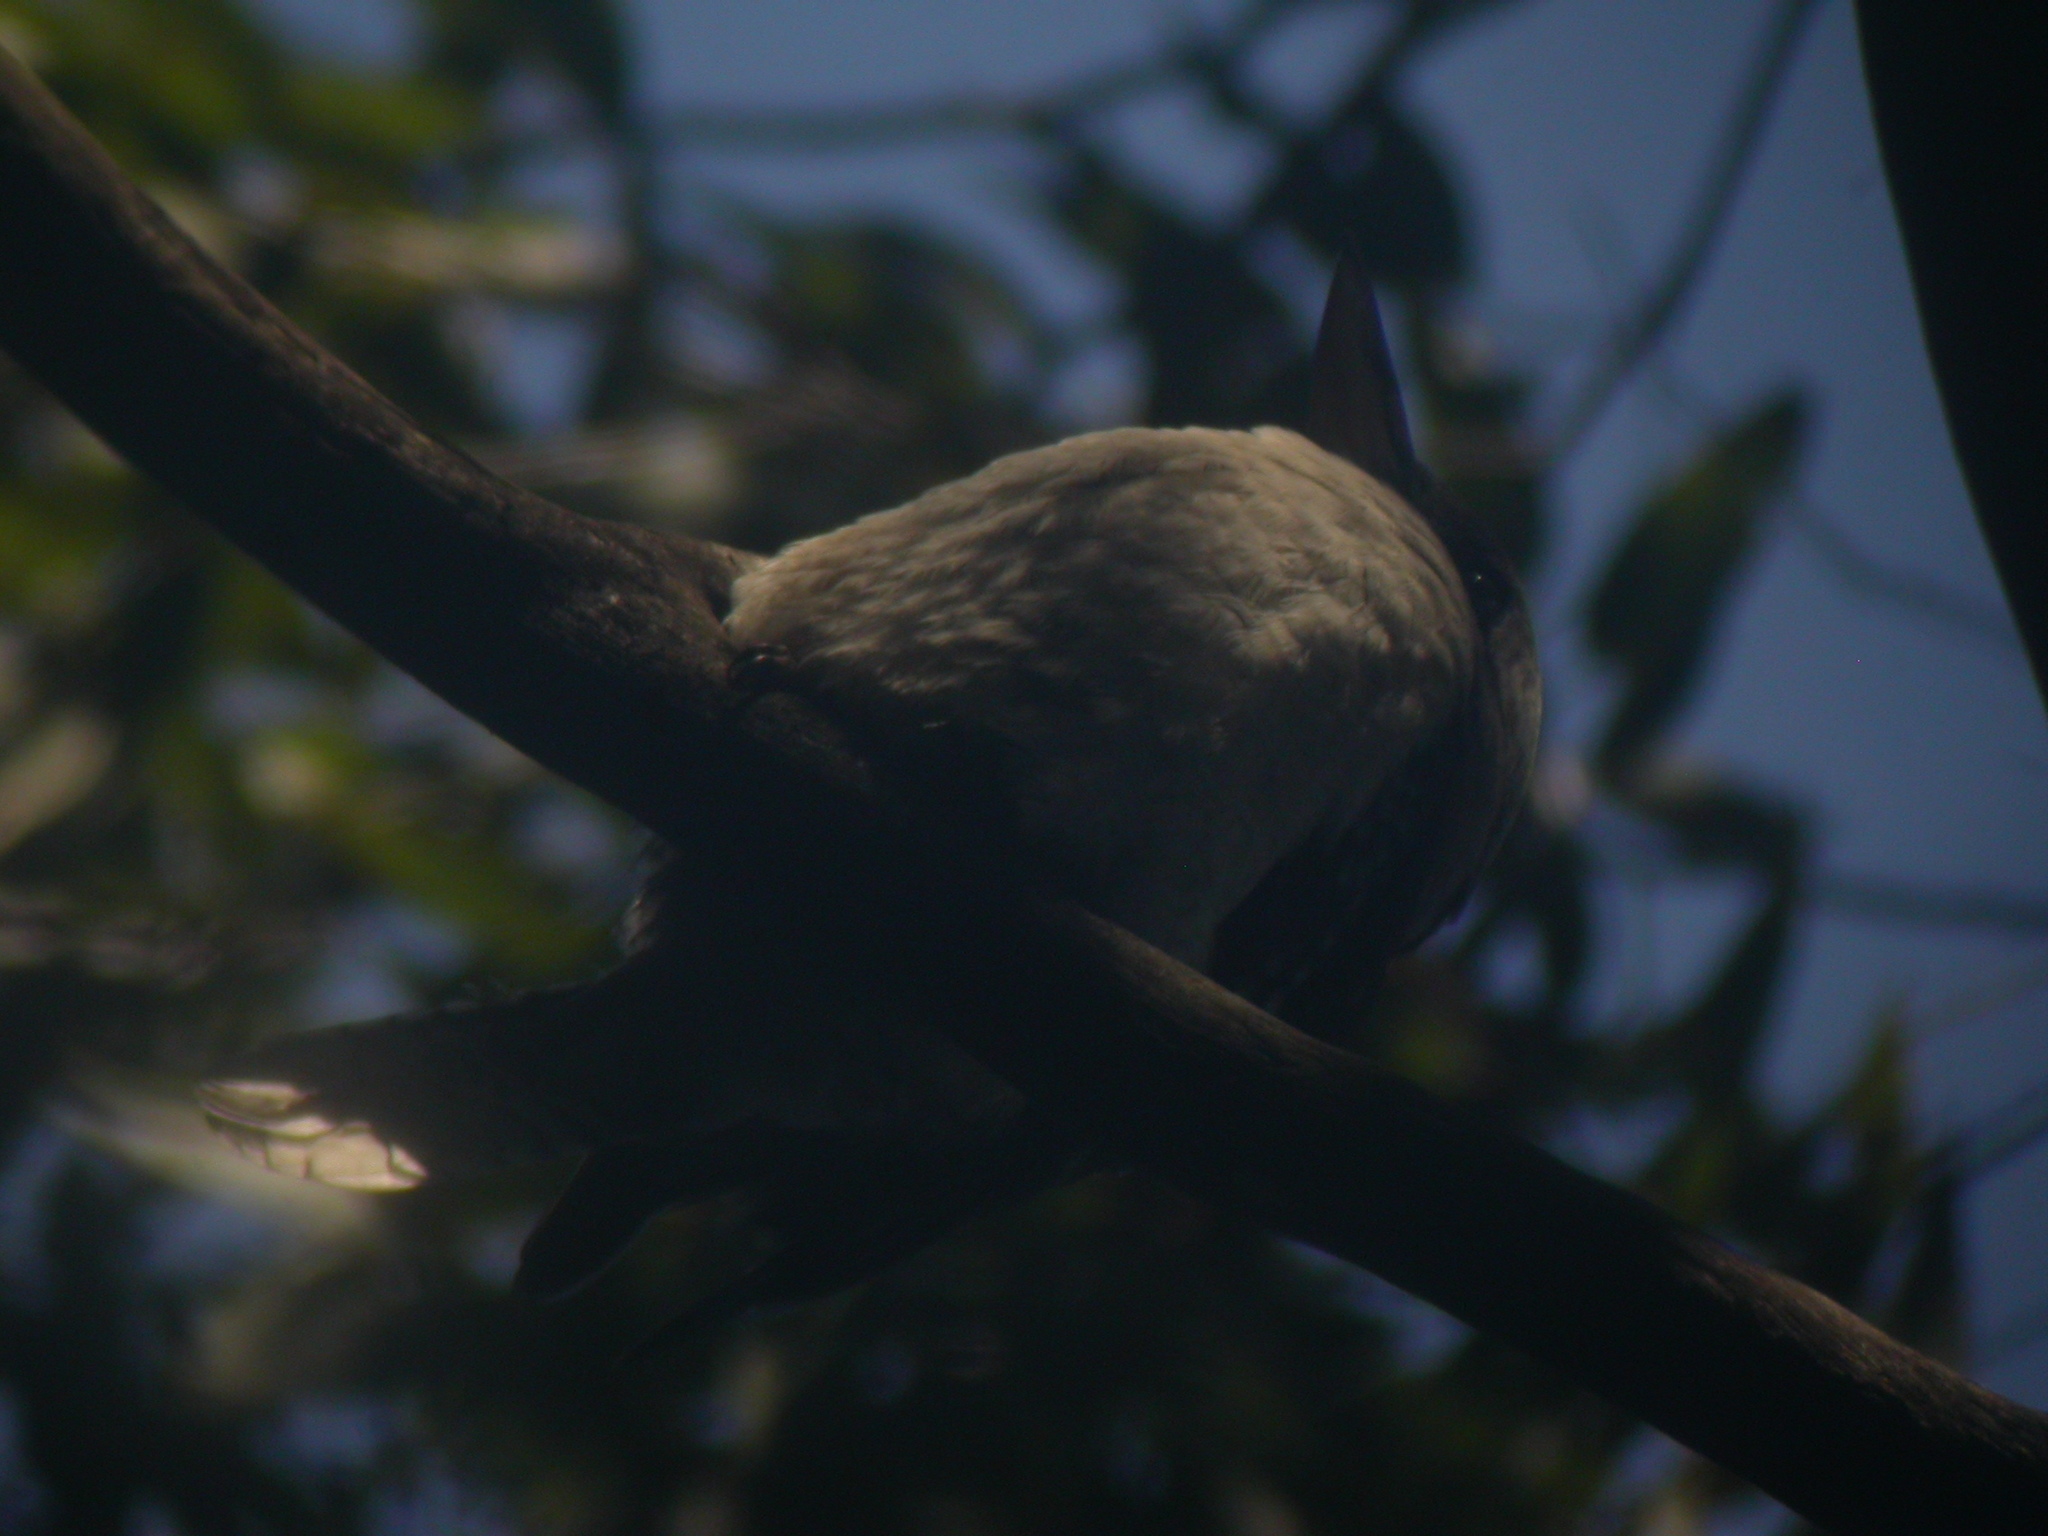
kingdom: Animalia
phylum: Chordata
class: Aves
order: Coraciiformes
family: Alcedinidae
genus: Dacelo
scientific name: Dacelo novaeguineae
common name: Laughing kookaburra
